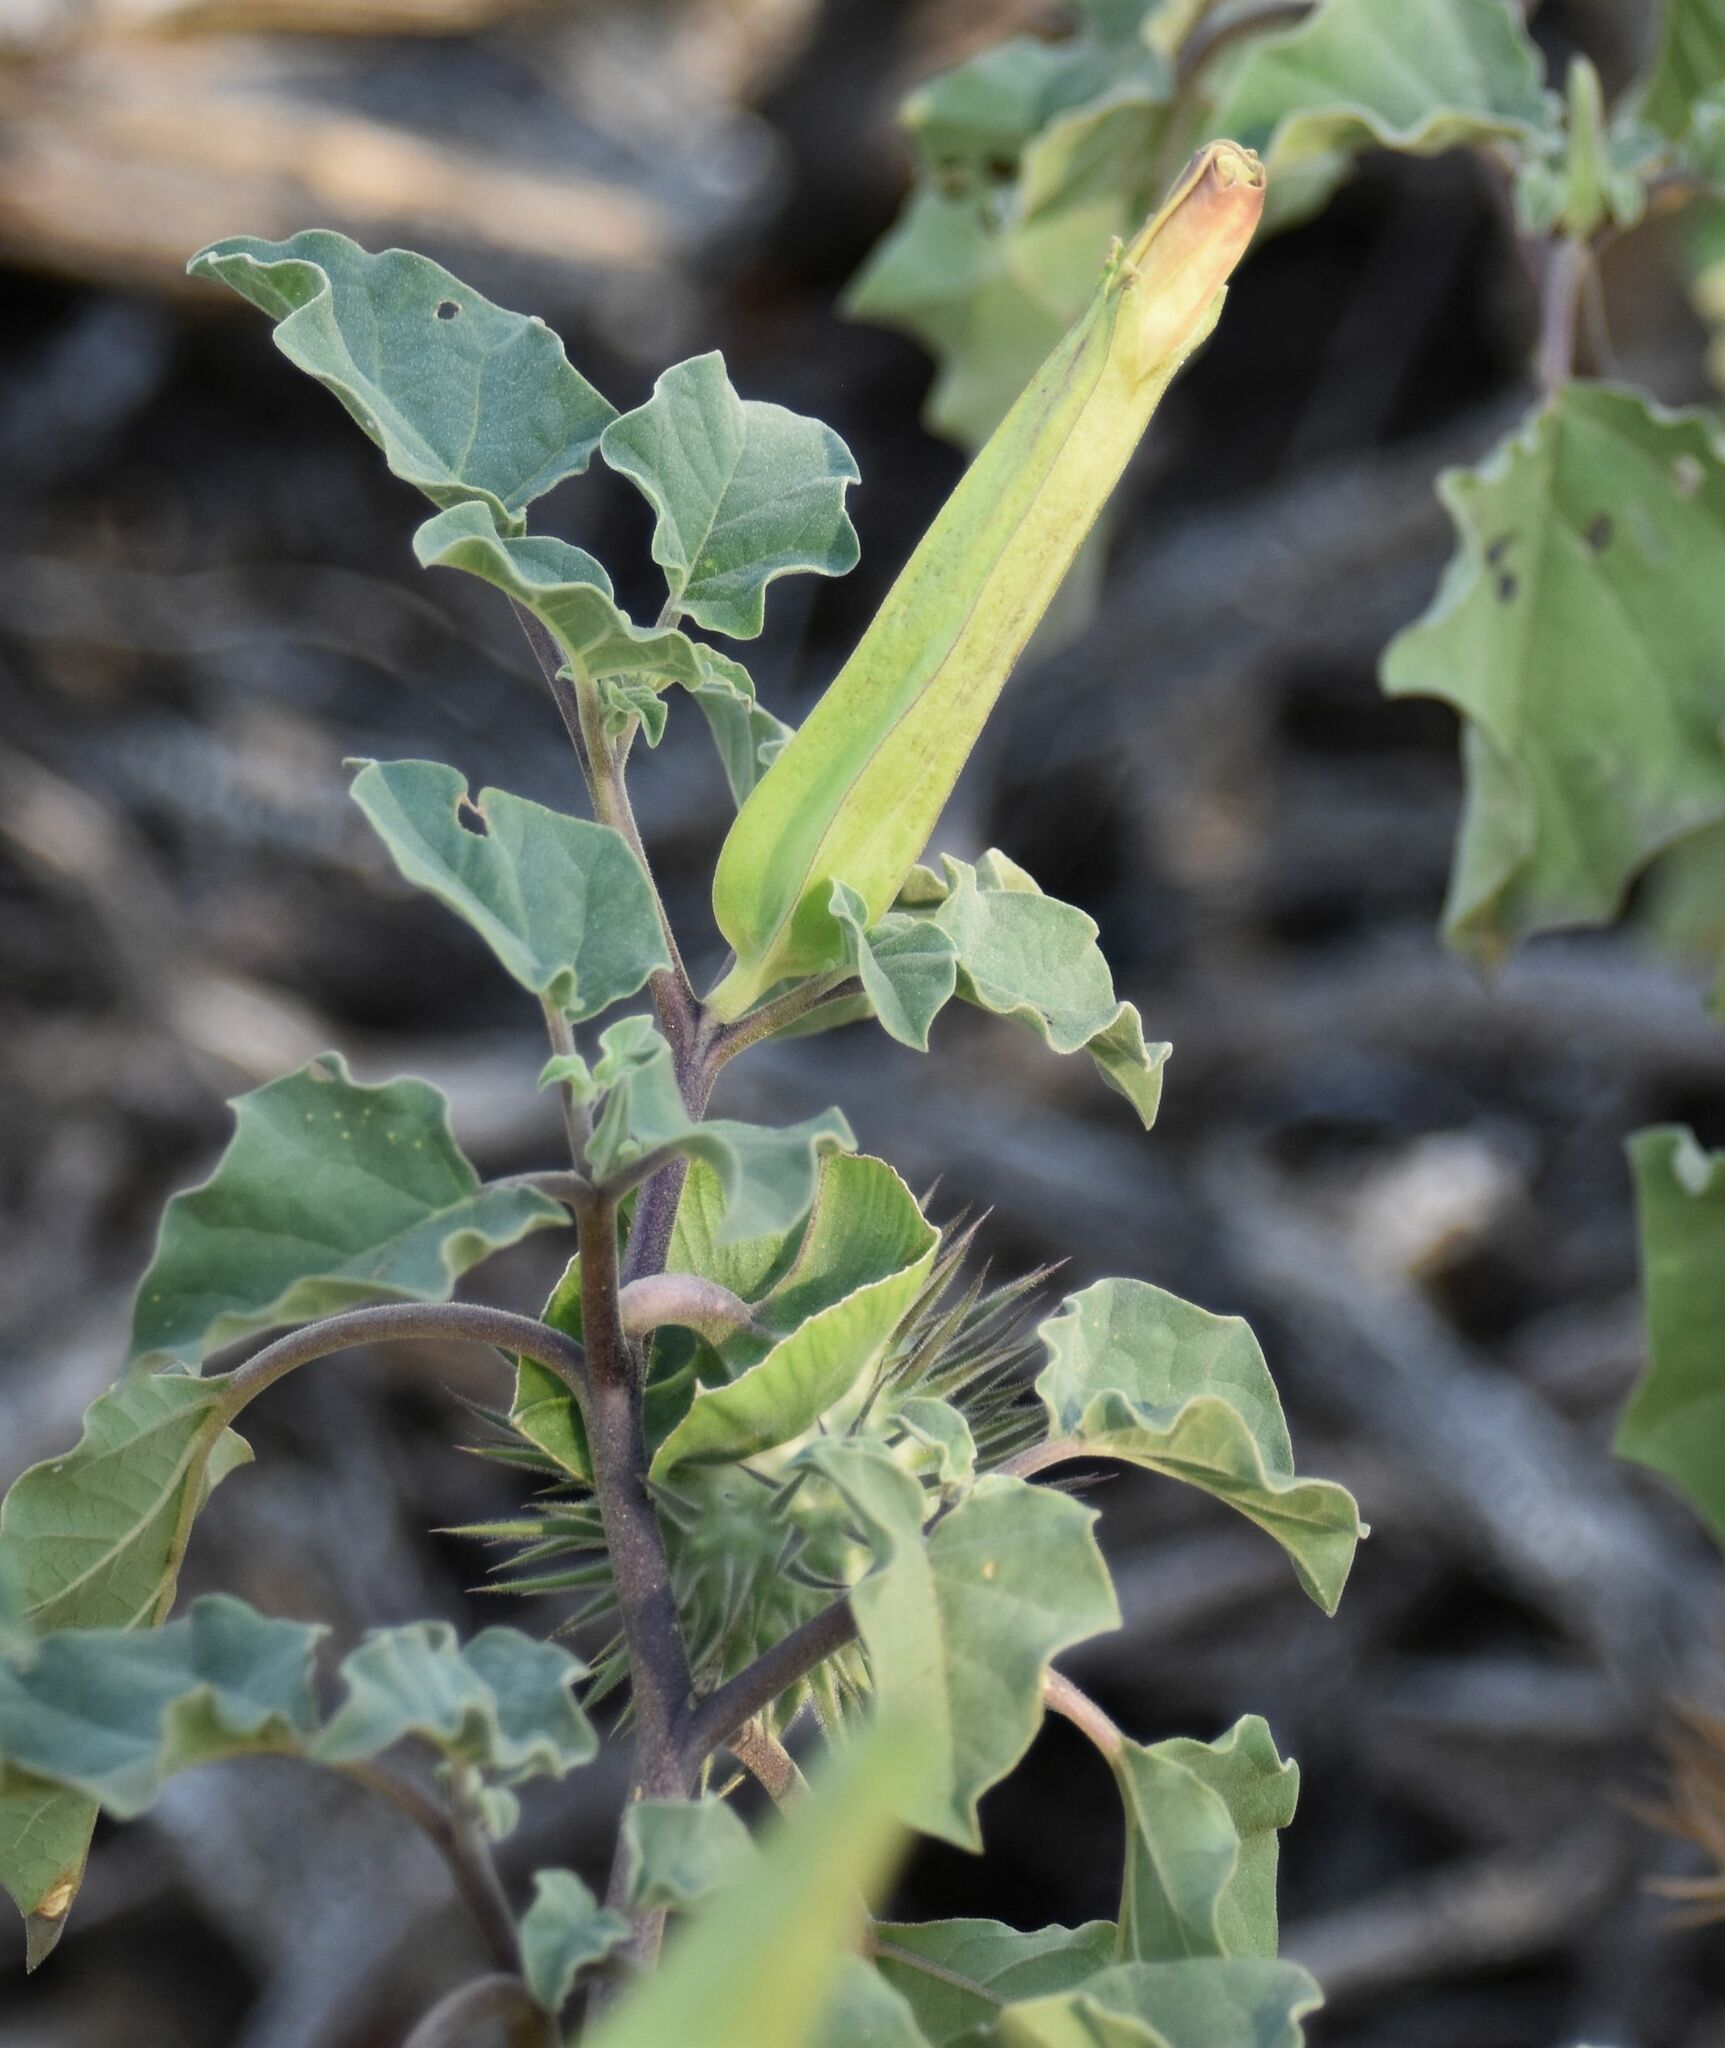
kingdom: Plantae
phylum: Tracheophyta
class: Magnoliopsida
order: Solanales
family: Solanaceae
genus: Datura
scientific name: Datura discolor
